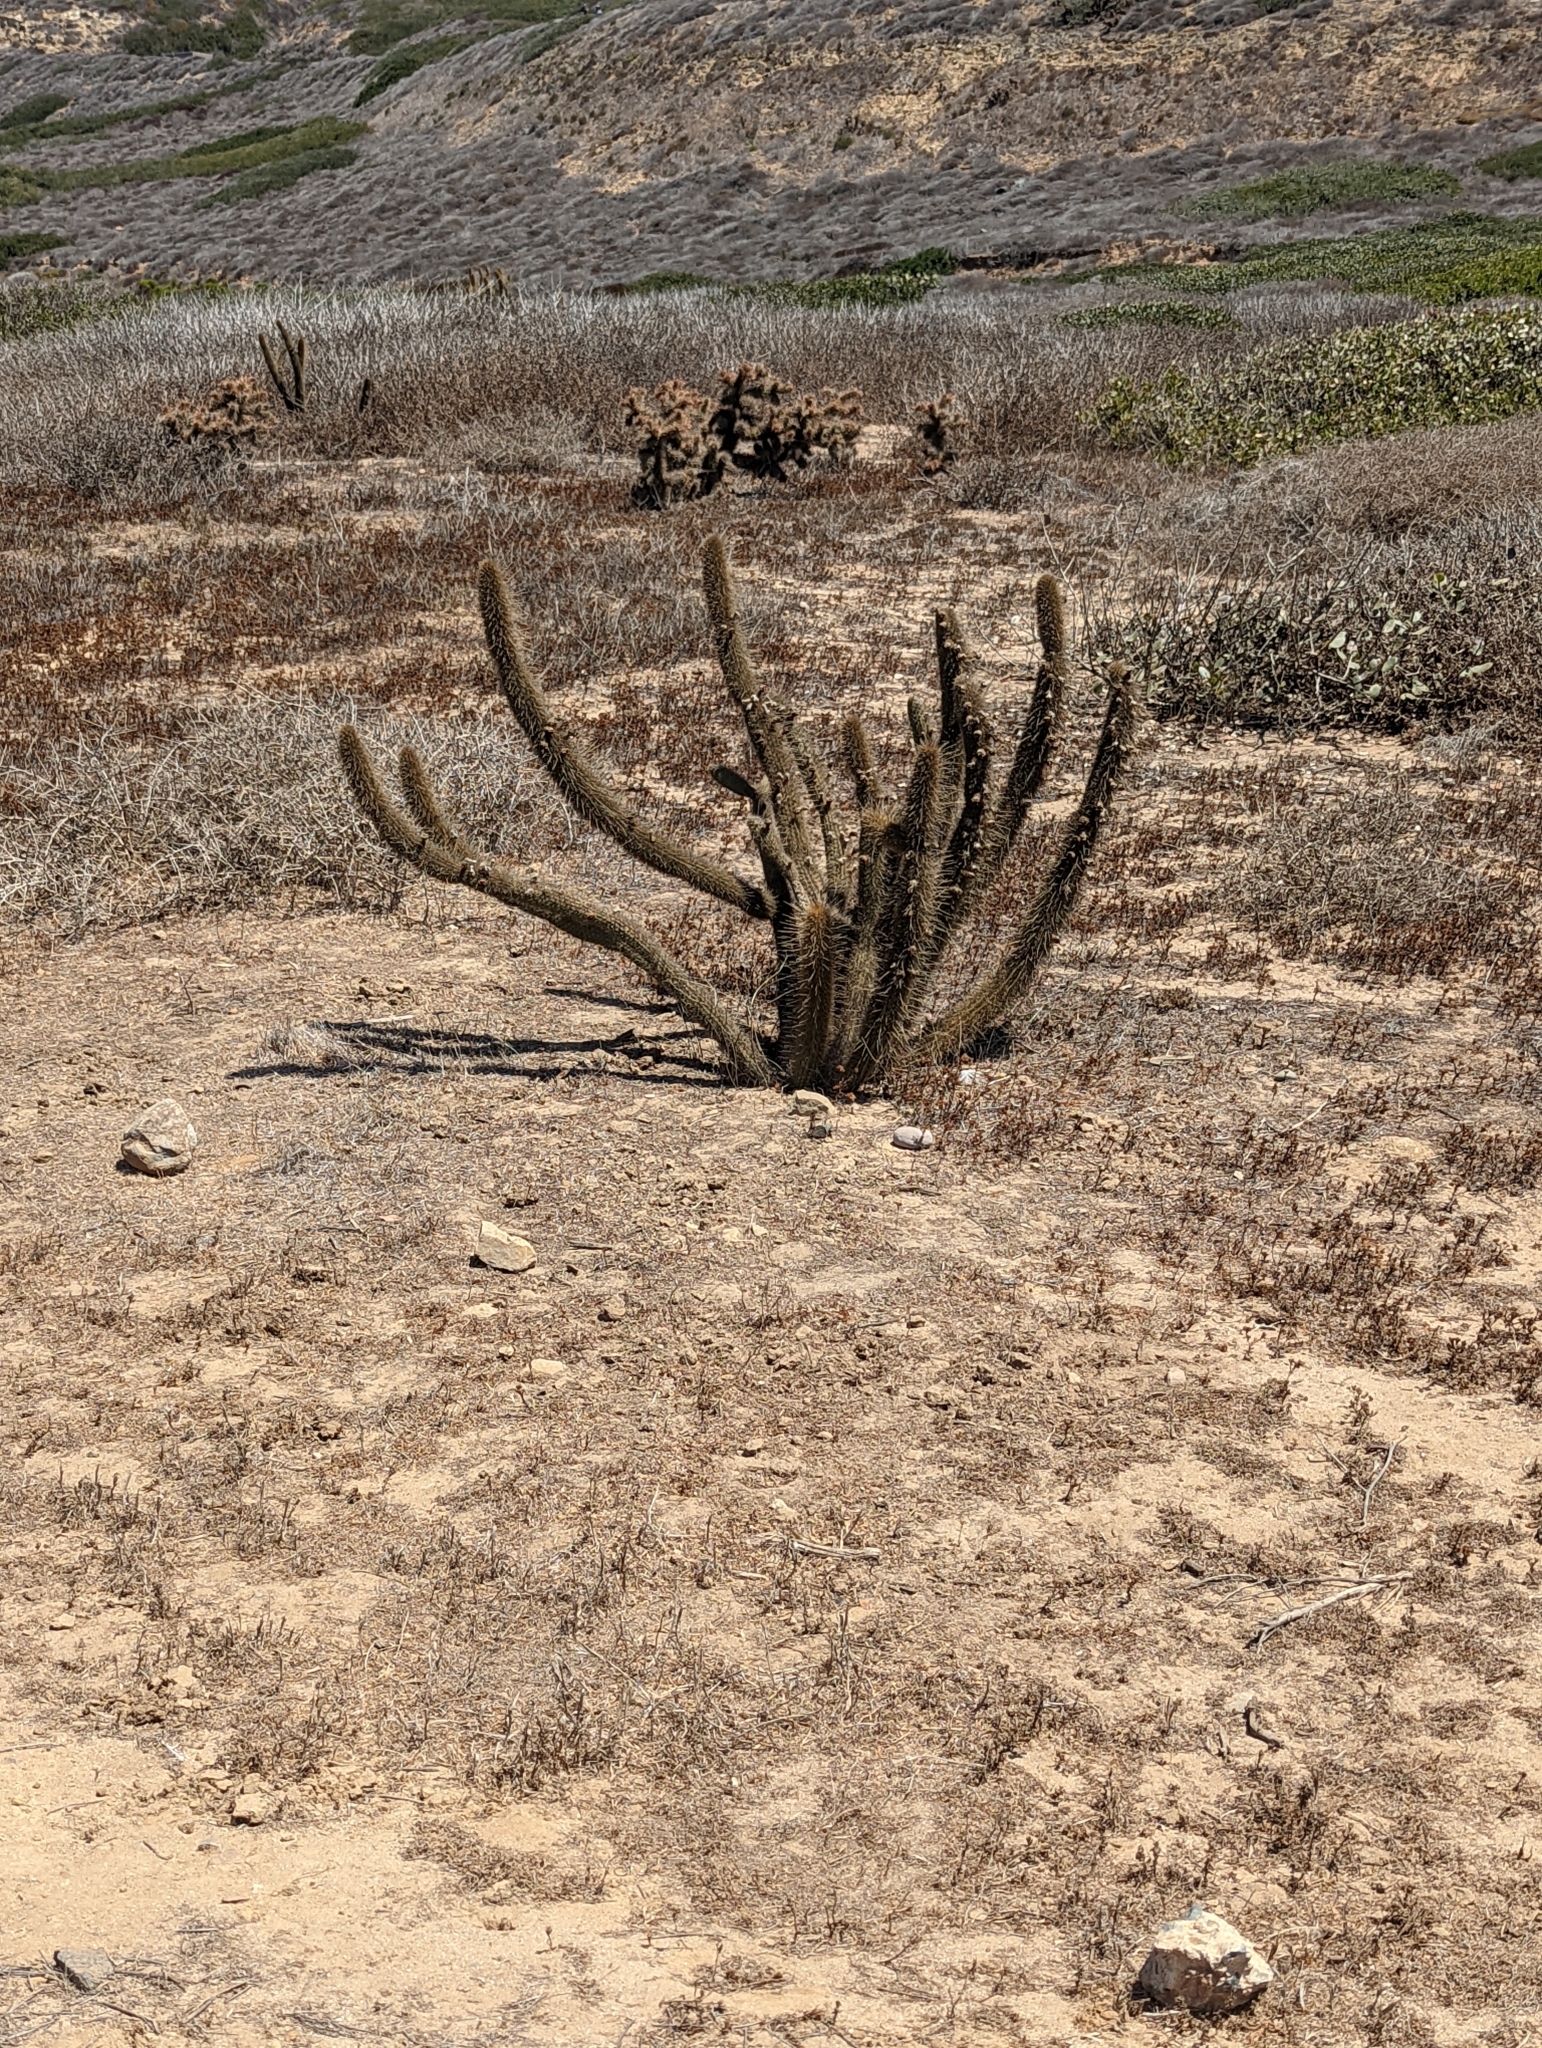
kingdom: Plantae
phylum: Tracheophyta
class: Magnoliopsida
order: Caryophyllales
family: Cactaceae
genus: Bergerocactus
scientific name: Bergerocactus emoryi
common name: Golden snakecactus
